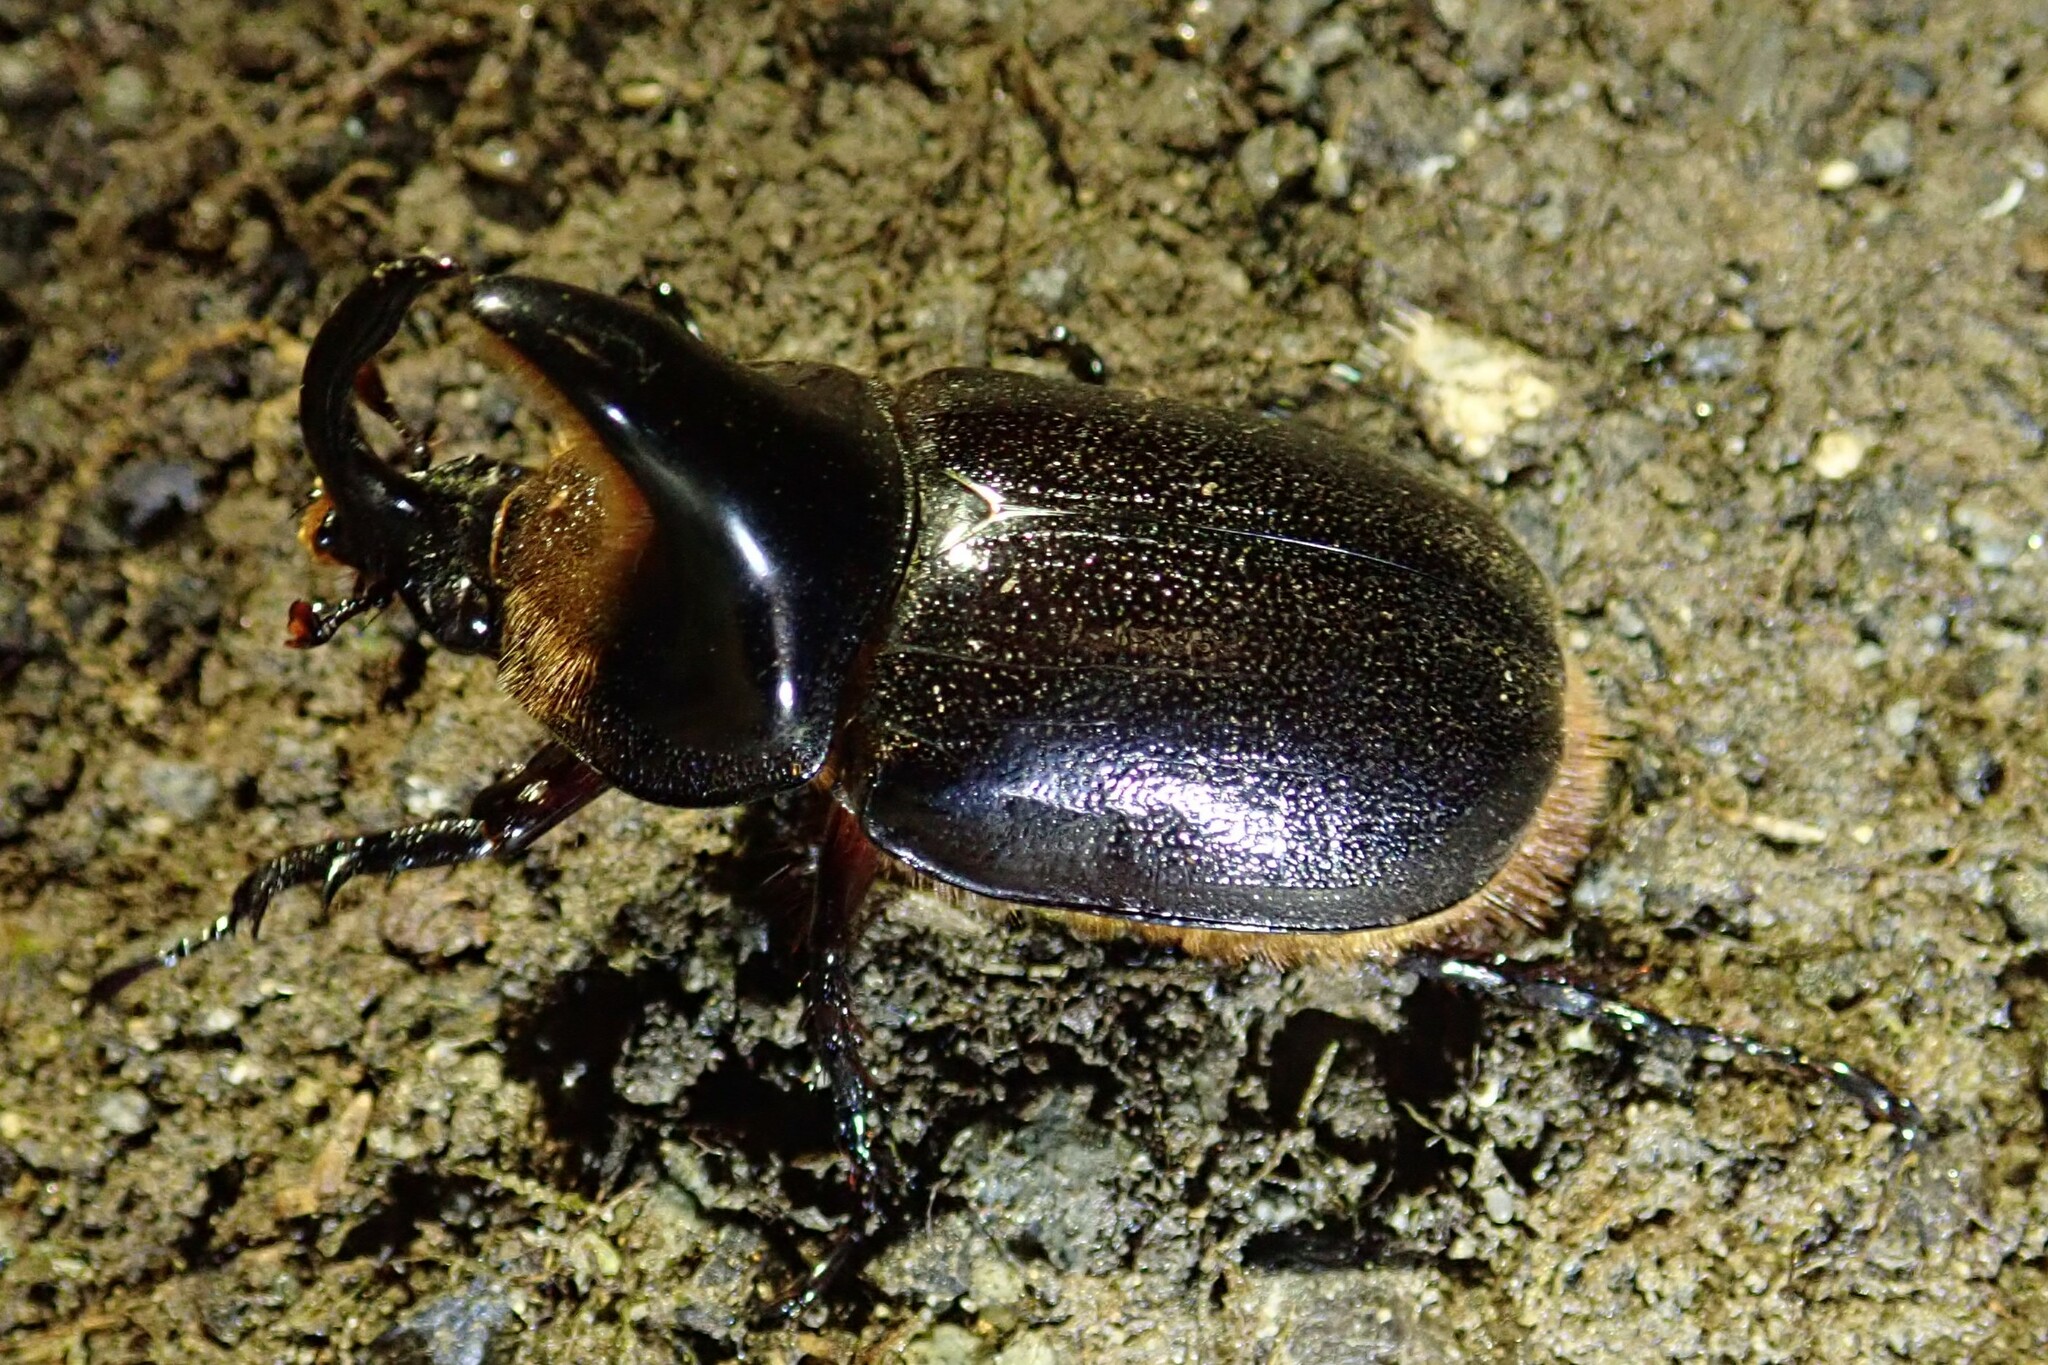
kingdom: Animalia
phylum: Arthropoda
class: Insecta
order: Coleoptera
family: Scarabaeidae
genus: Heterogomphus
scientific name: Heterogomphus schoenherri
